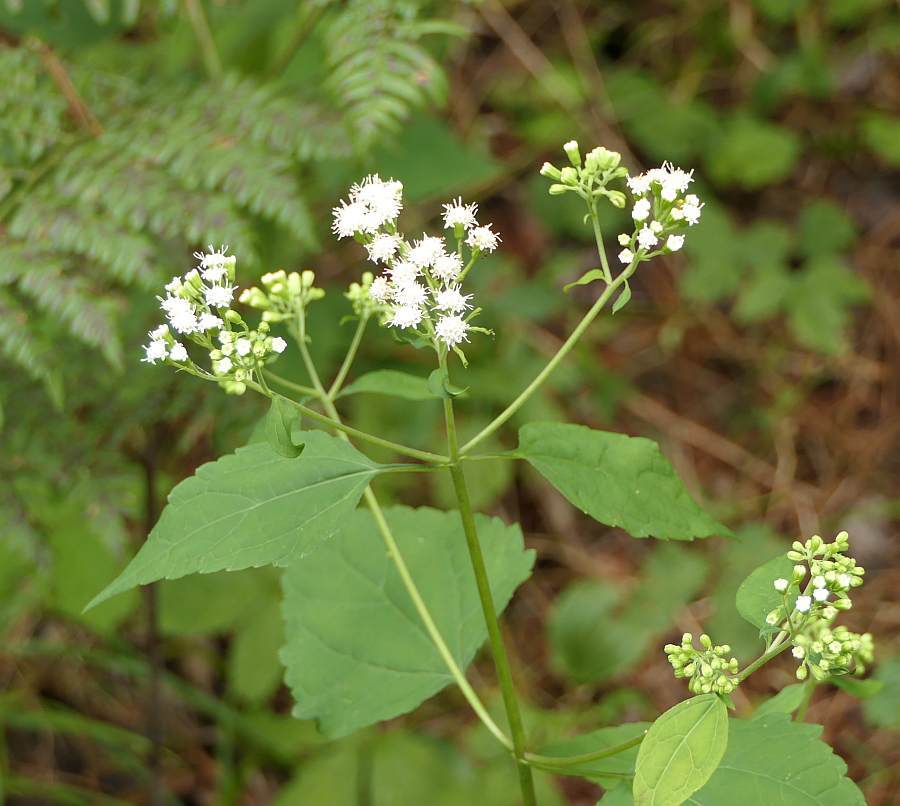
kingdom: Plantae
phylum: Tracheophyta
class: Magnoliopsida
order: Asterales
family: Asteraceae
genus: Ageratina
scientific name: Ageratina altissima
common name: White snakeroot
